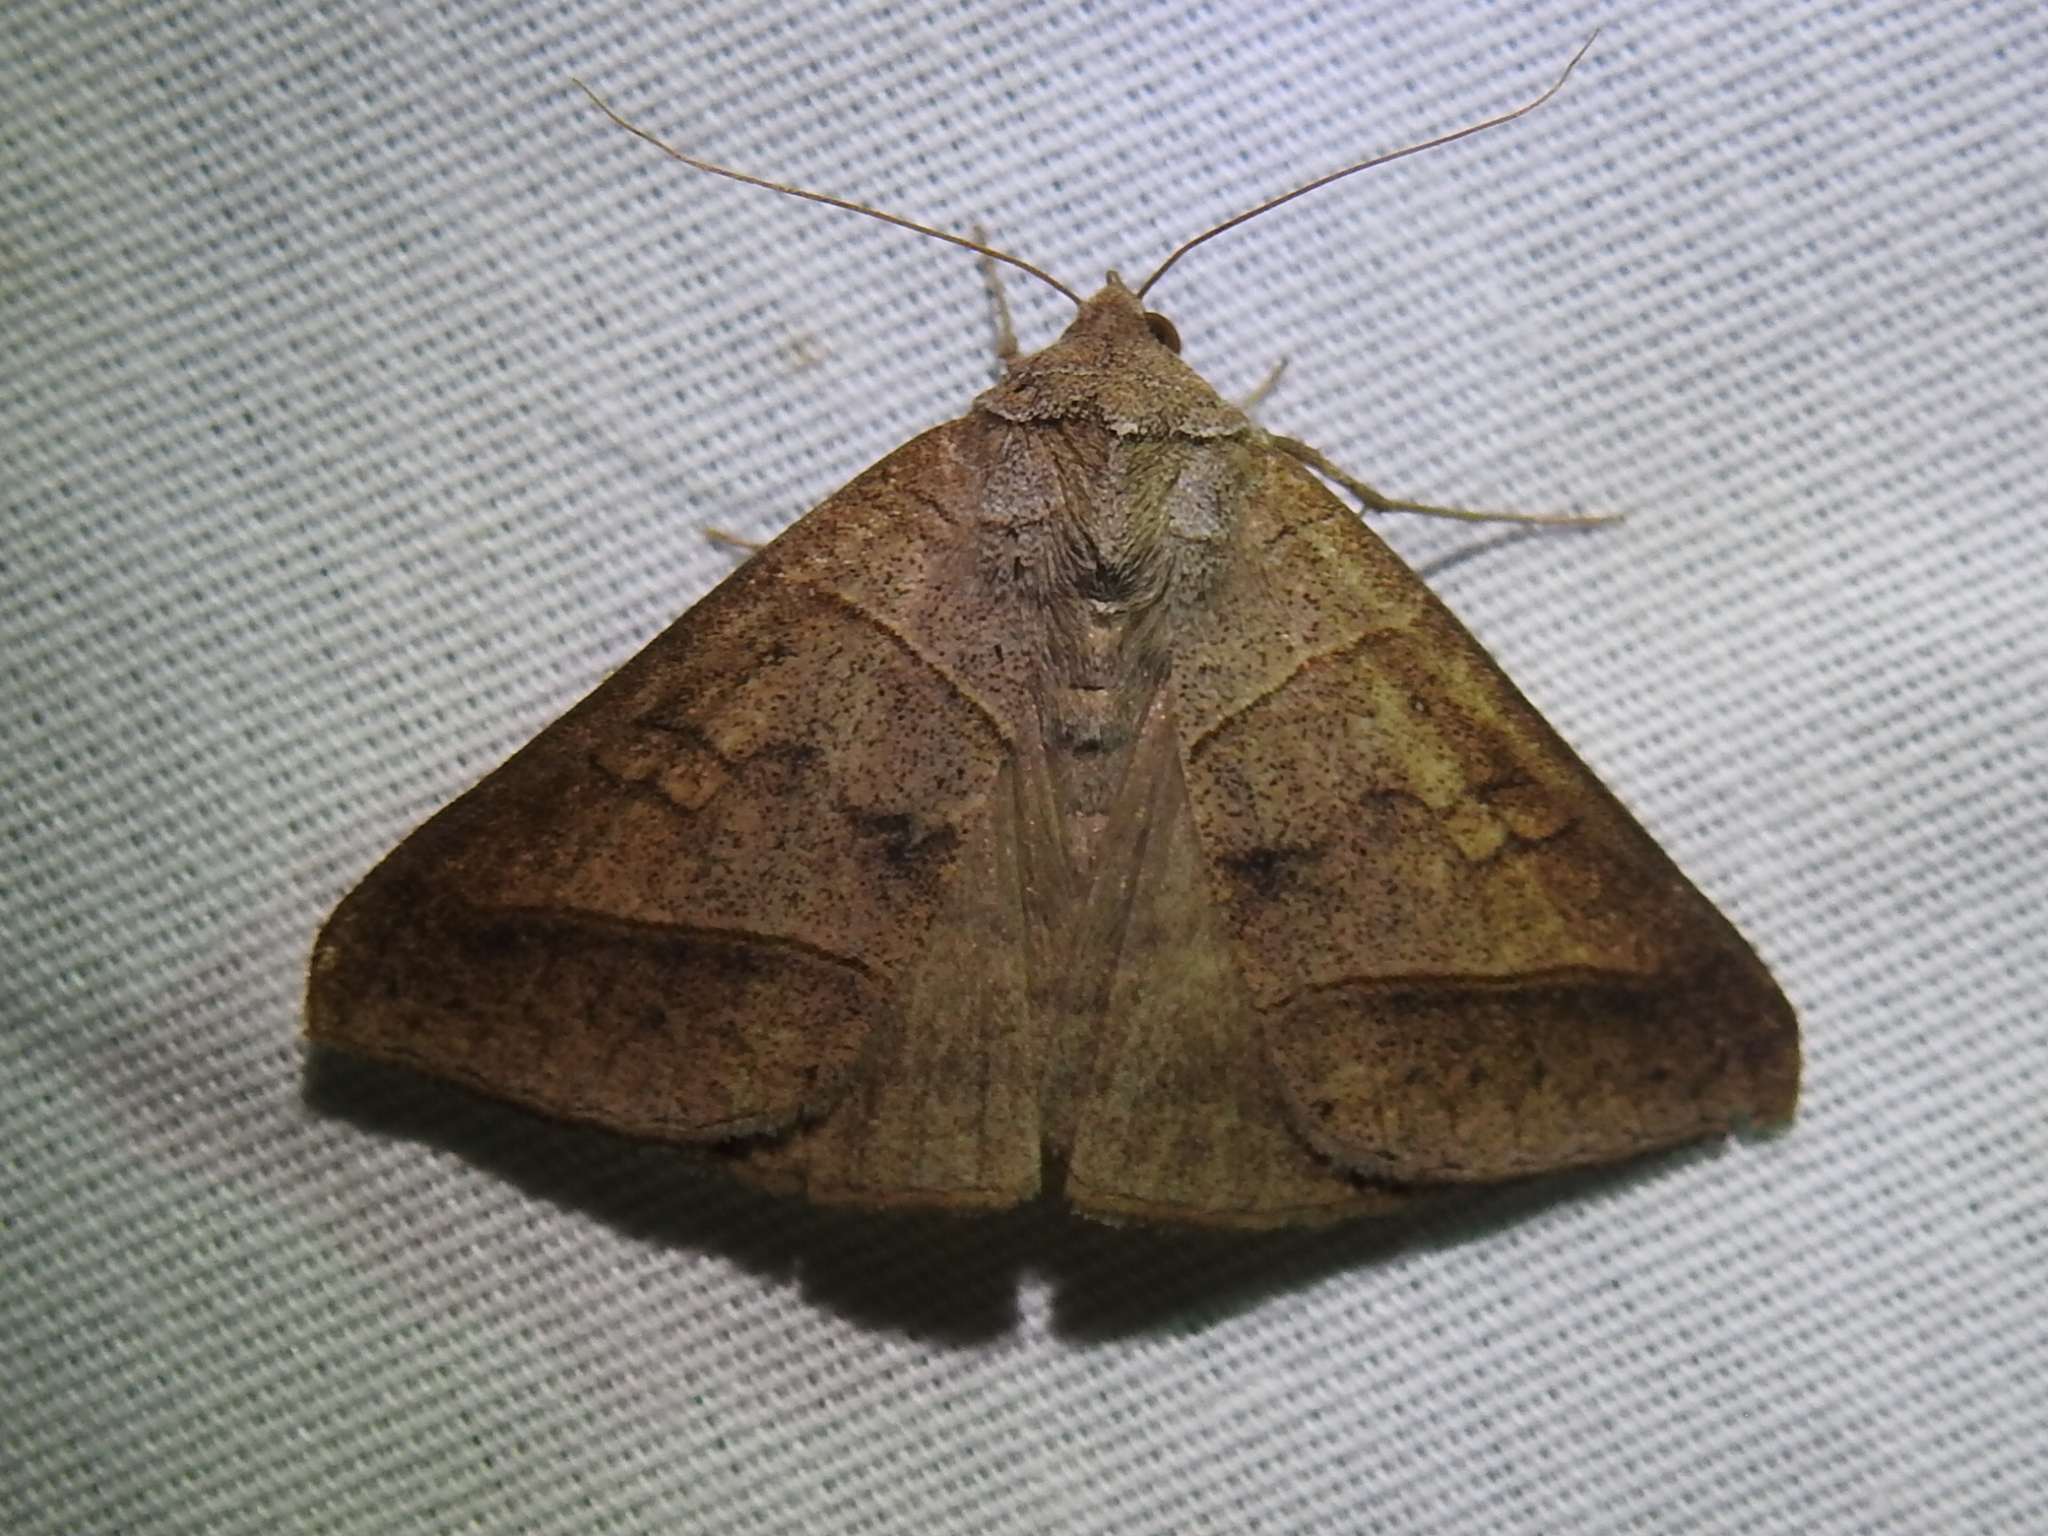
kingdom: Animalia
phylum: Arthropoda
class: Insecta
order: Lepidoptera
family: Erebidae
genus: Mocis
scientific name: Mocis texana
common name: Texas mocis moth
